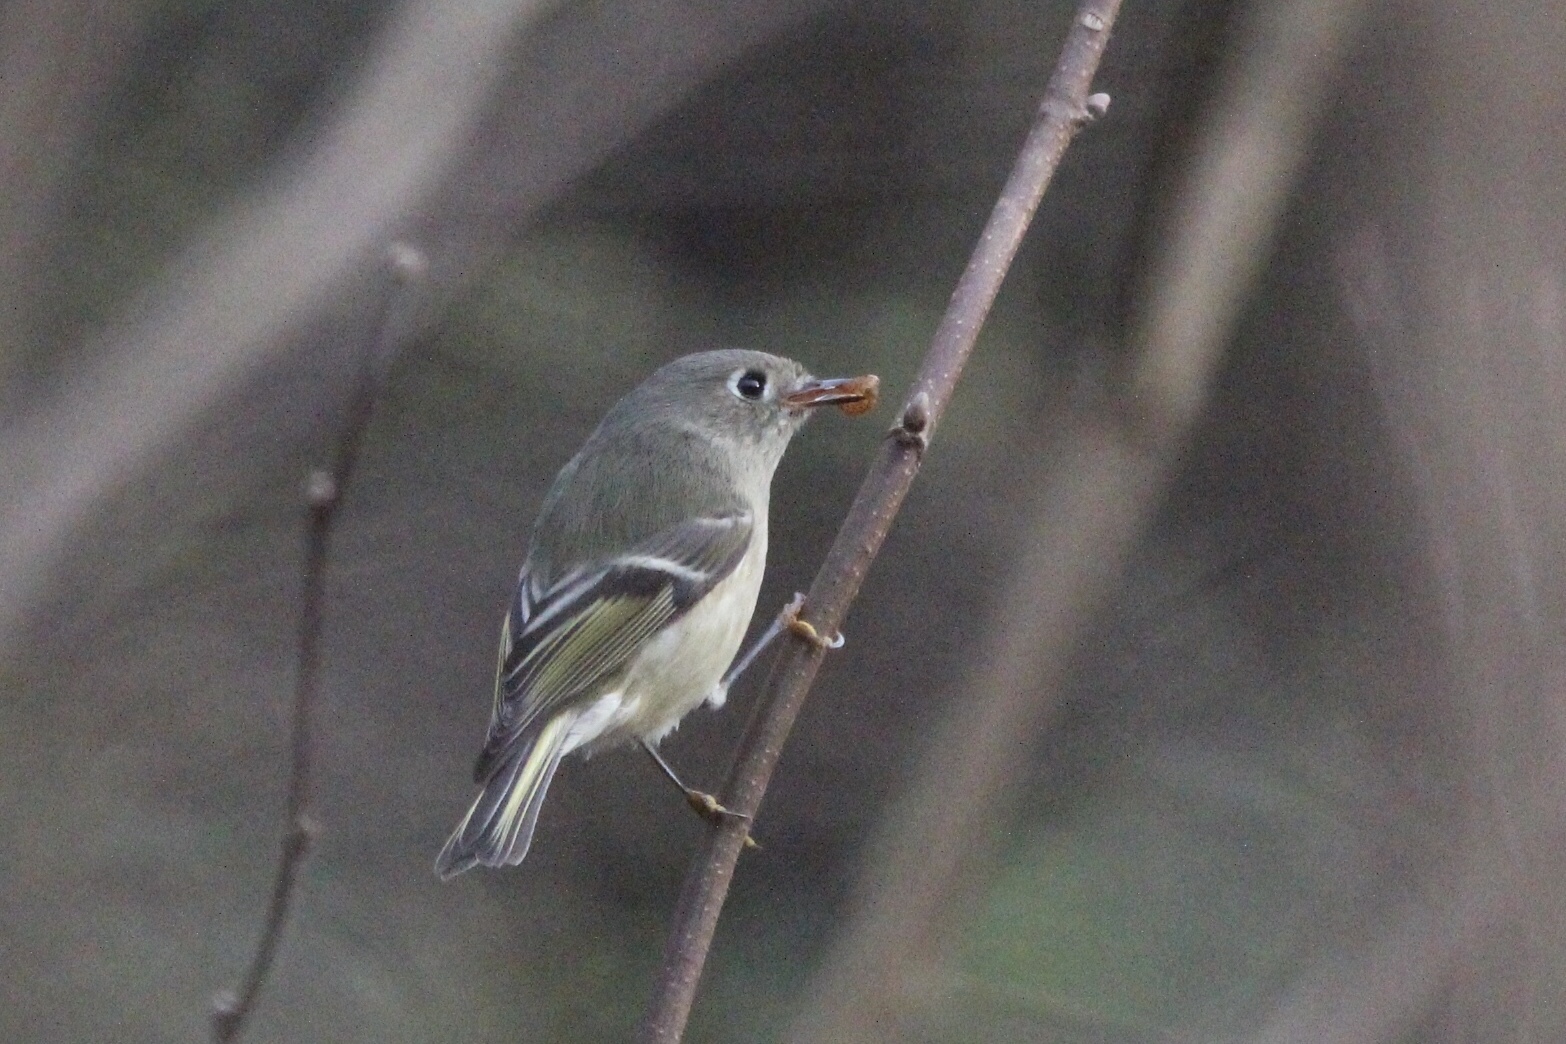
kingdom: Animalia
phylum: Chordata
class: Aves
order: Passeriformes
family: Regulidae
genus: Regulus
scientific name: Regulus calendula
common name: Ruby-crowned kinglet
